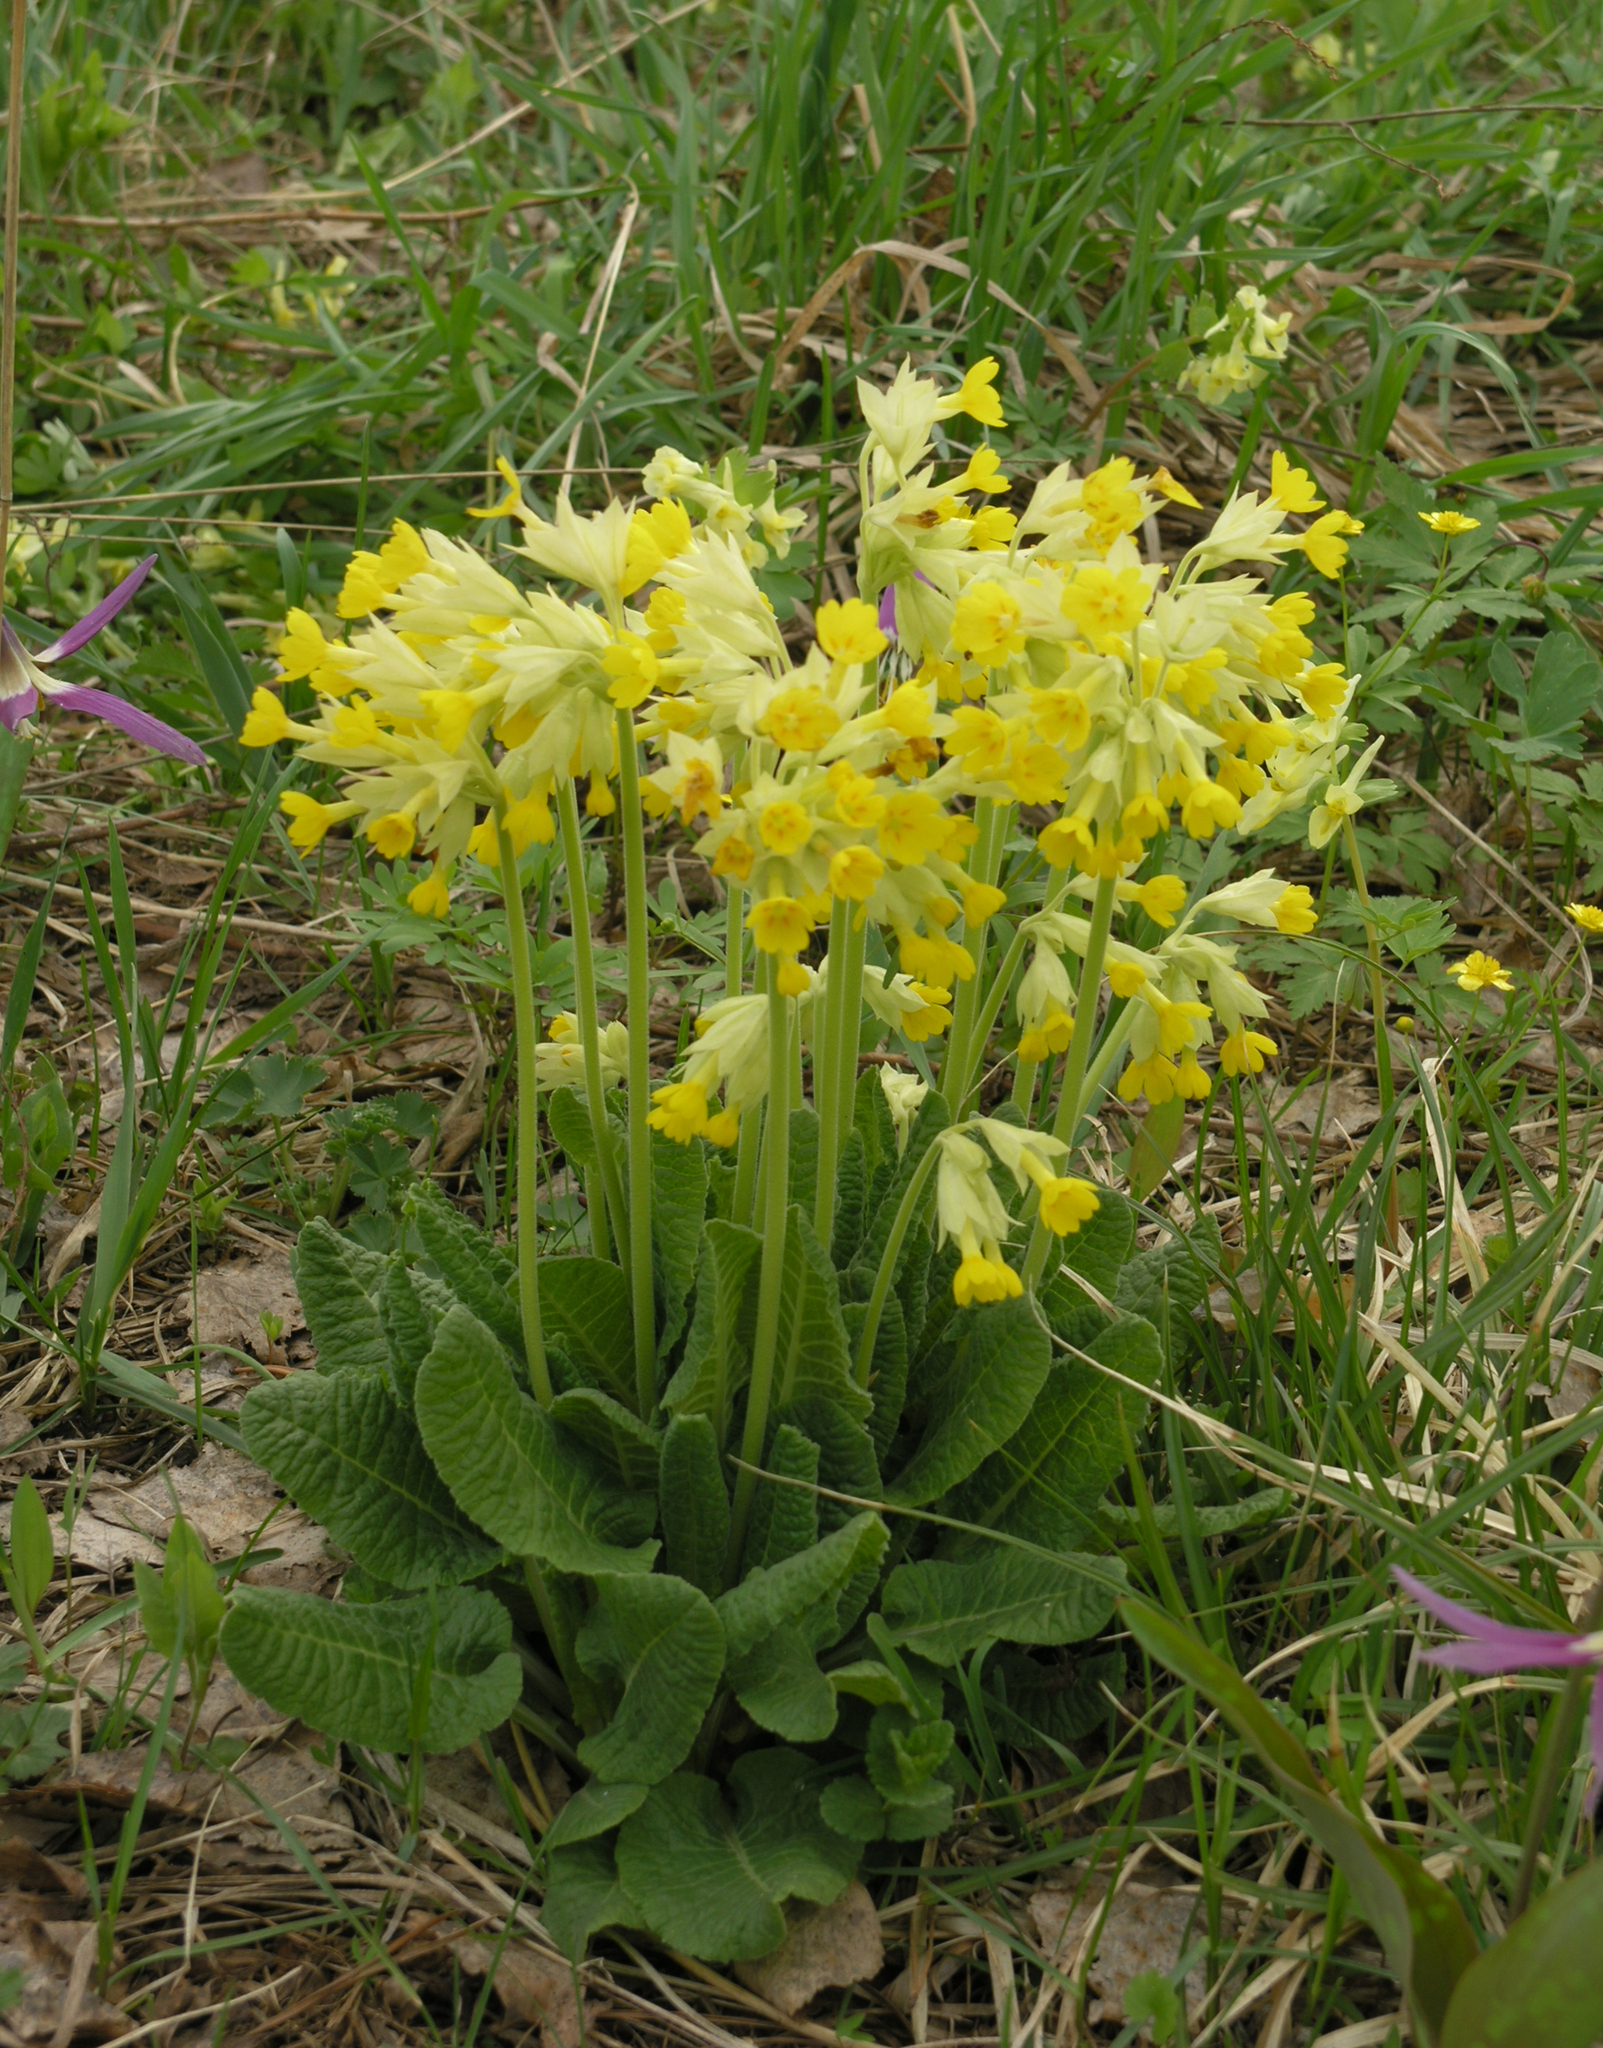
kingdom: Plantae
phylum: Tracheophyta
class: Magnoliopsida
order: Ericales
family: Primulaceae
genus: Primula
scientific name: Primula veris
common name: Cowslip
